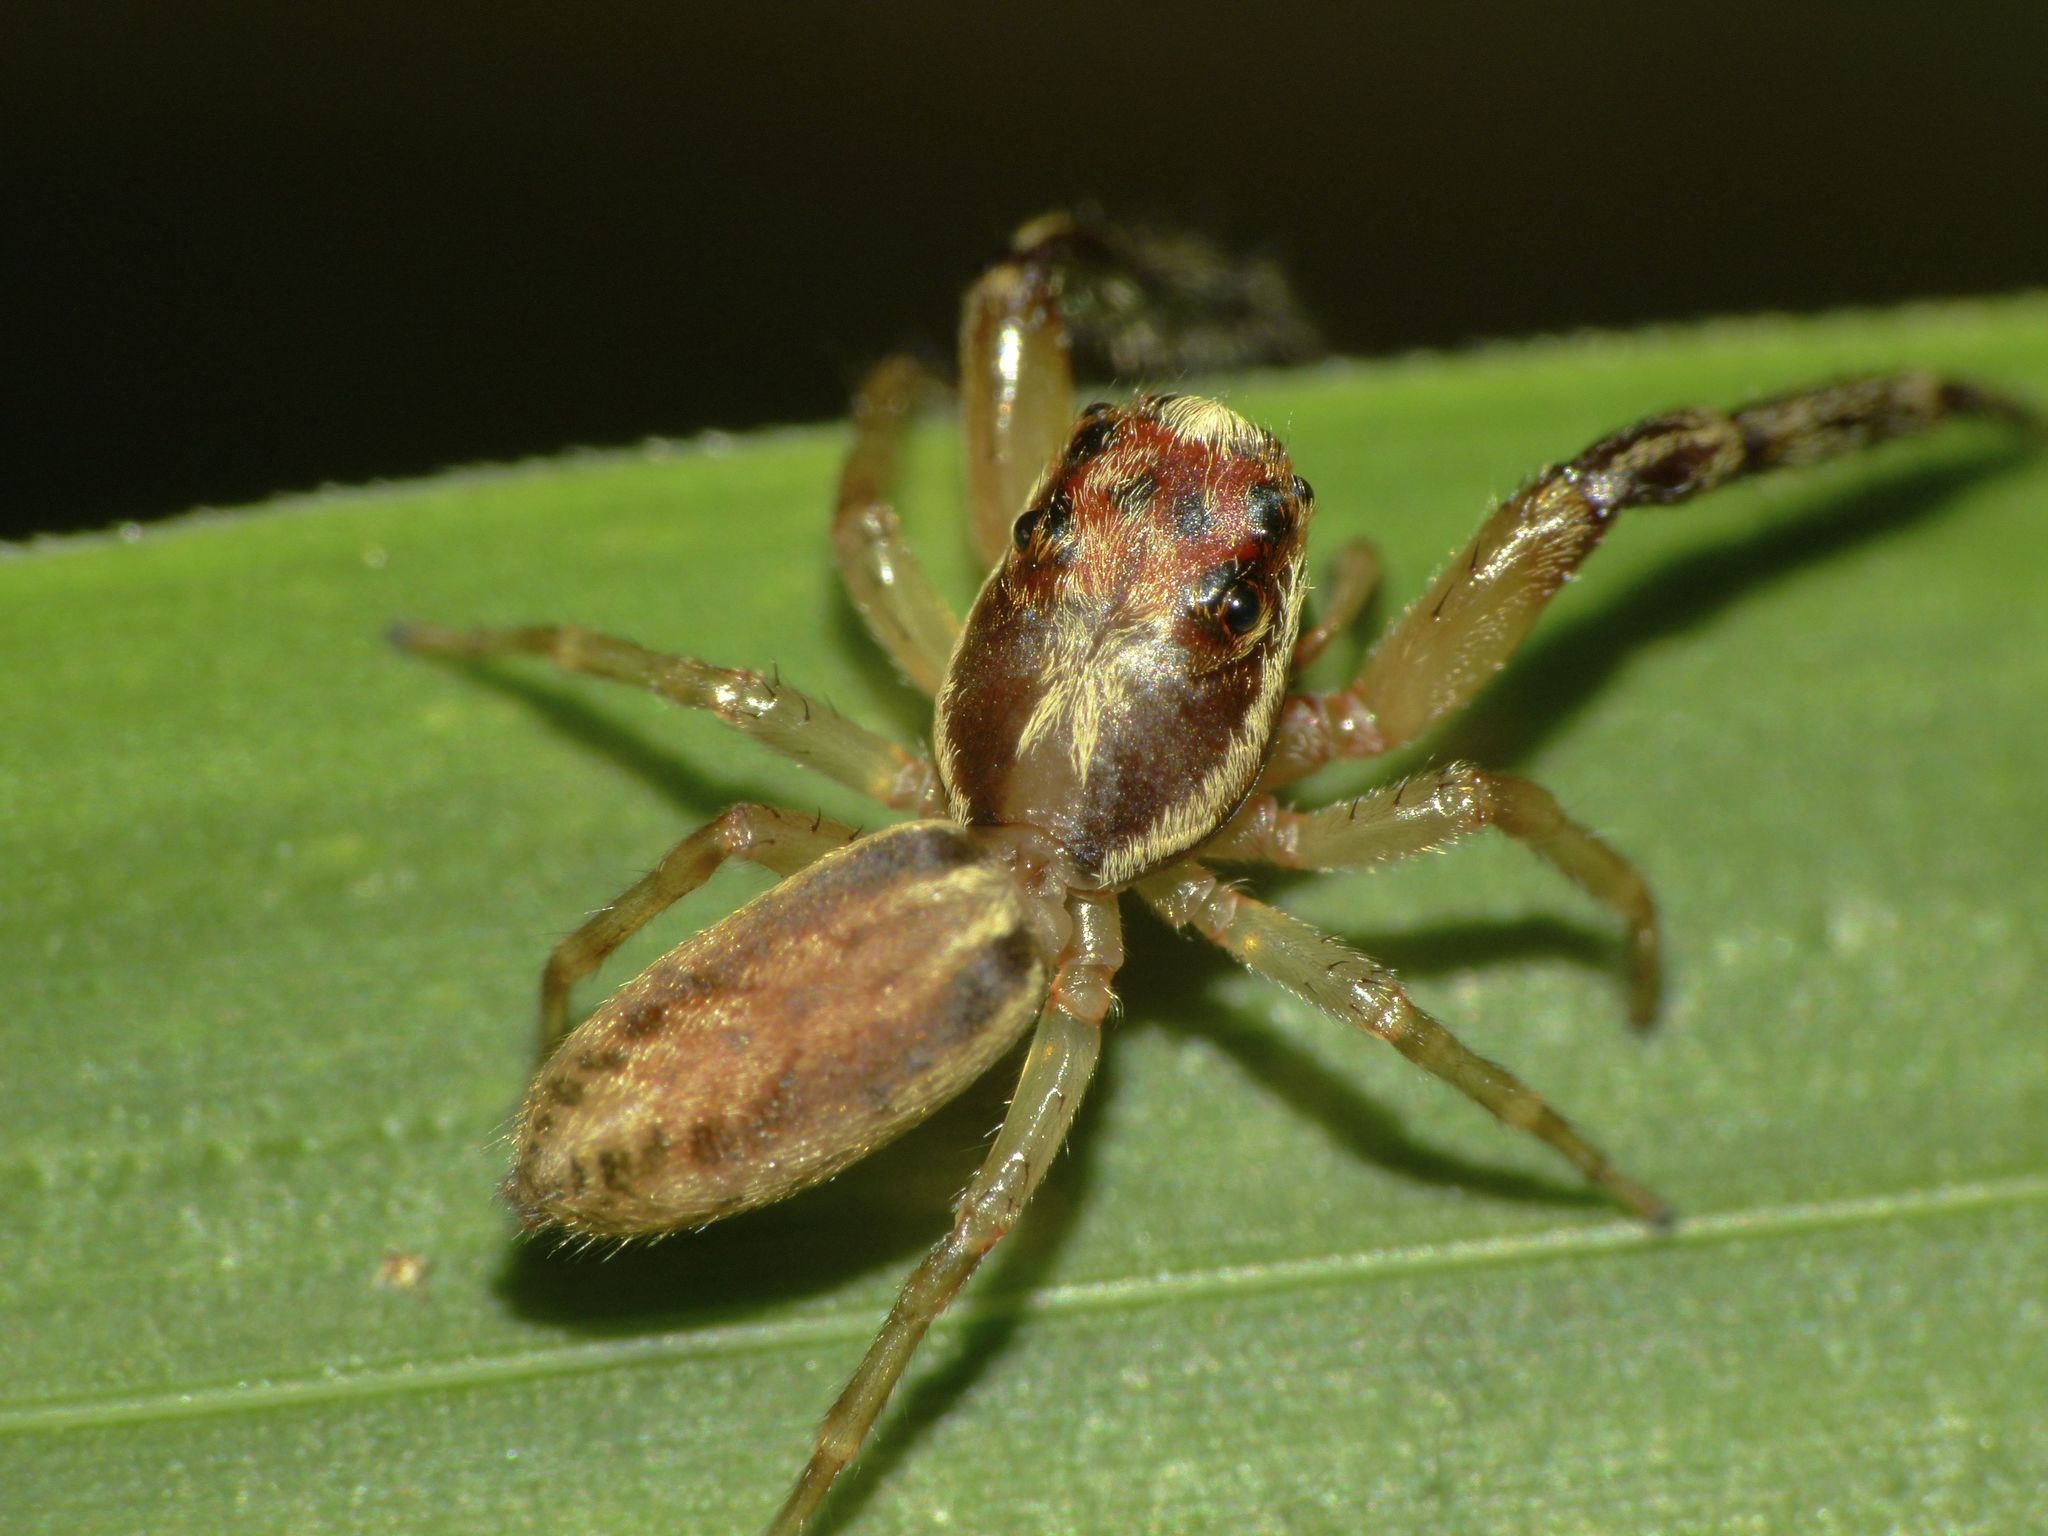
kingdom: Animalia
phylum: Arthropoda
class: Arachnida
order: Araneae
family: Salticidae
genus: Trite
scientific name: Trite mustilina
